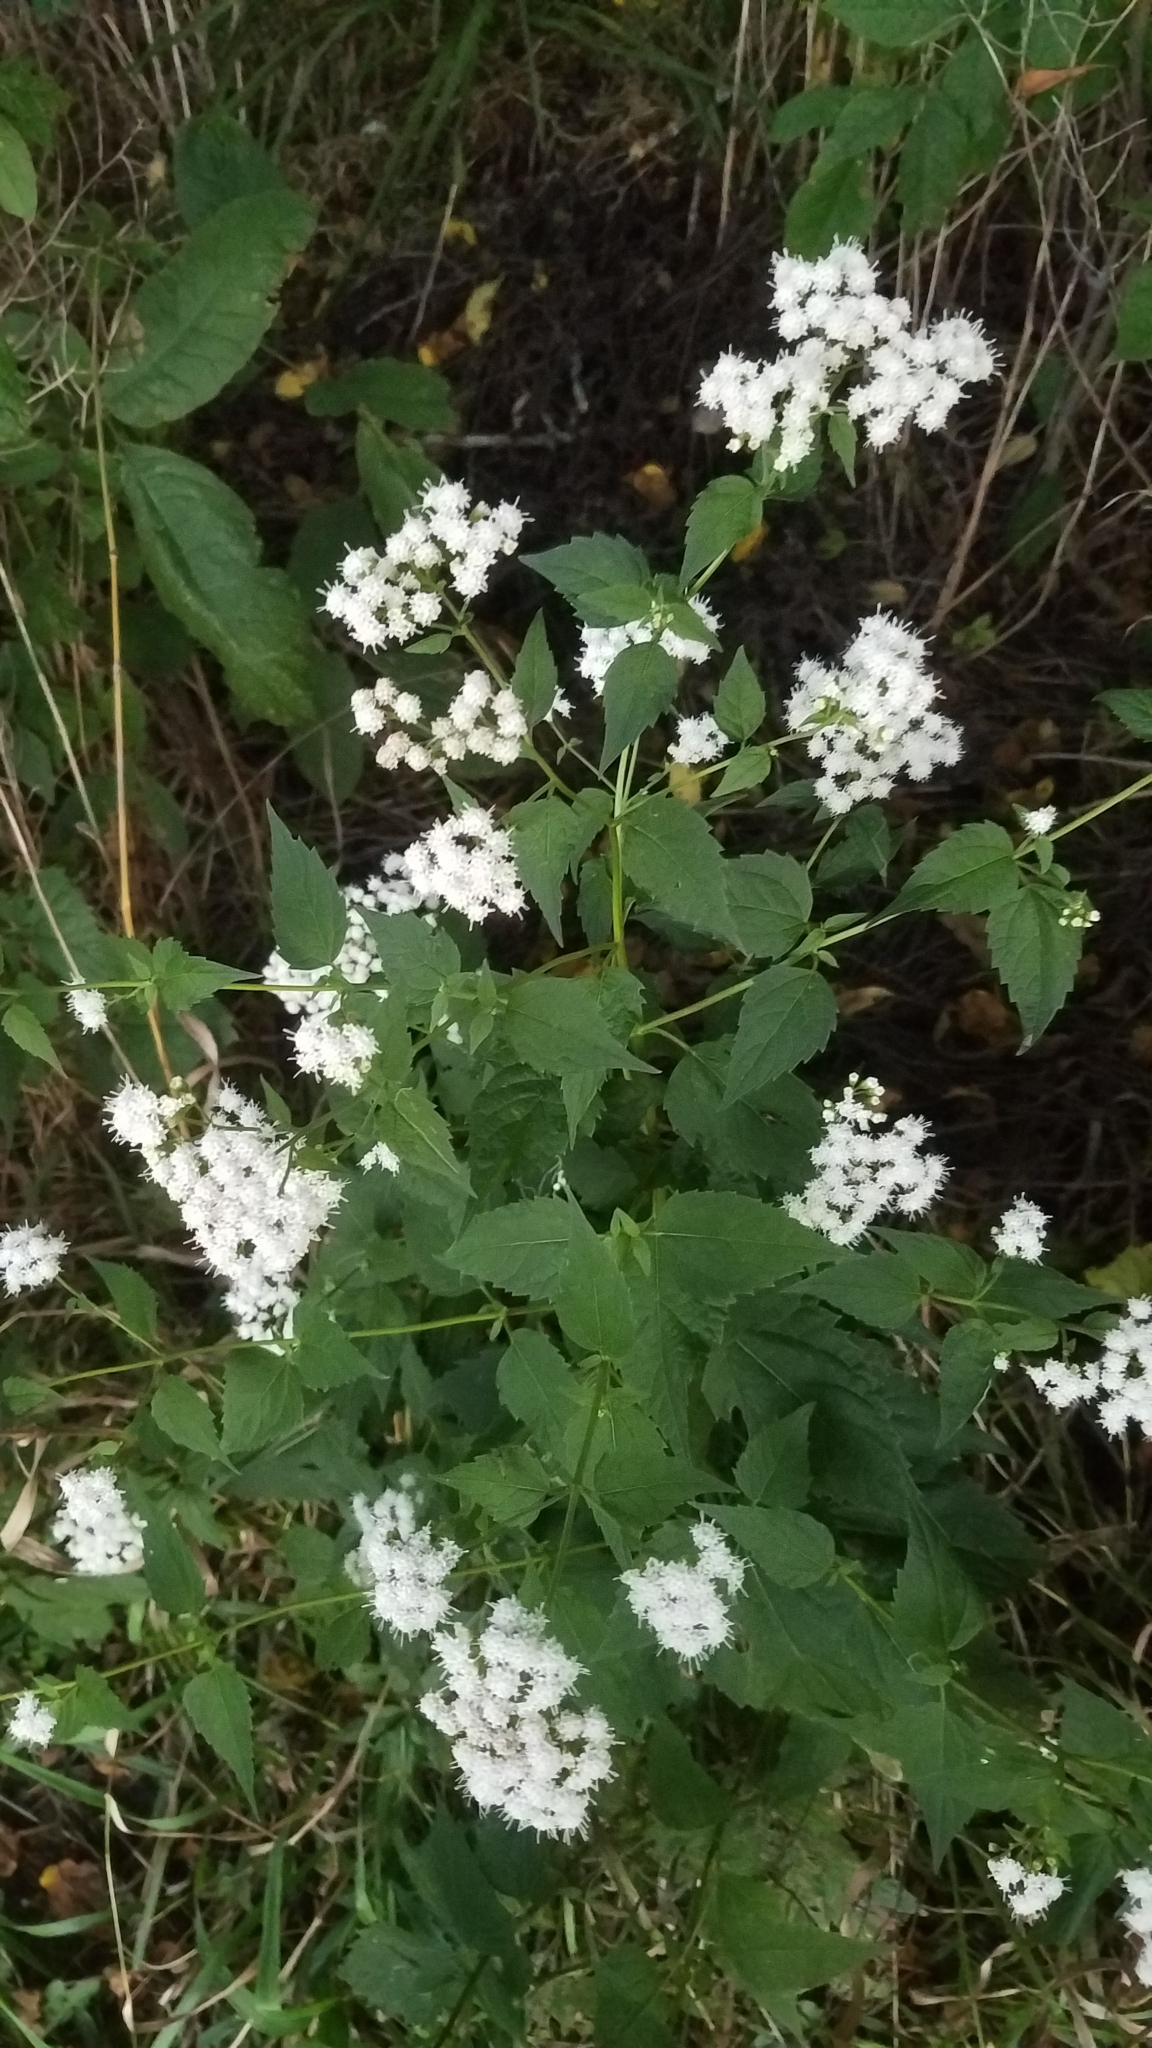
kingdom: Plantae
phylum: Tracheophyta
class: Magnoliopsida
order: Asterales
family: Asteraceae
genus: Ageratina
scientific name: Ageratina altissima
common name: White snakeroot
